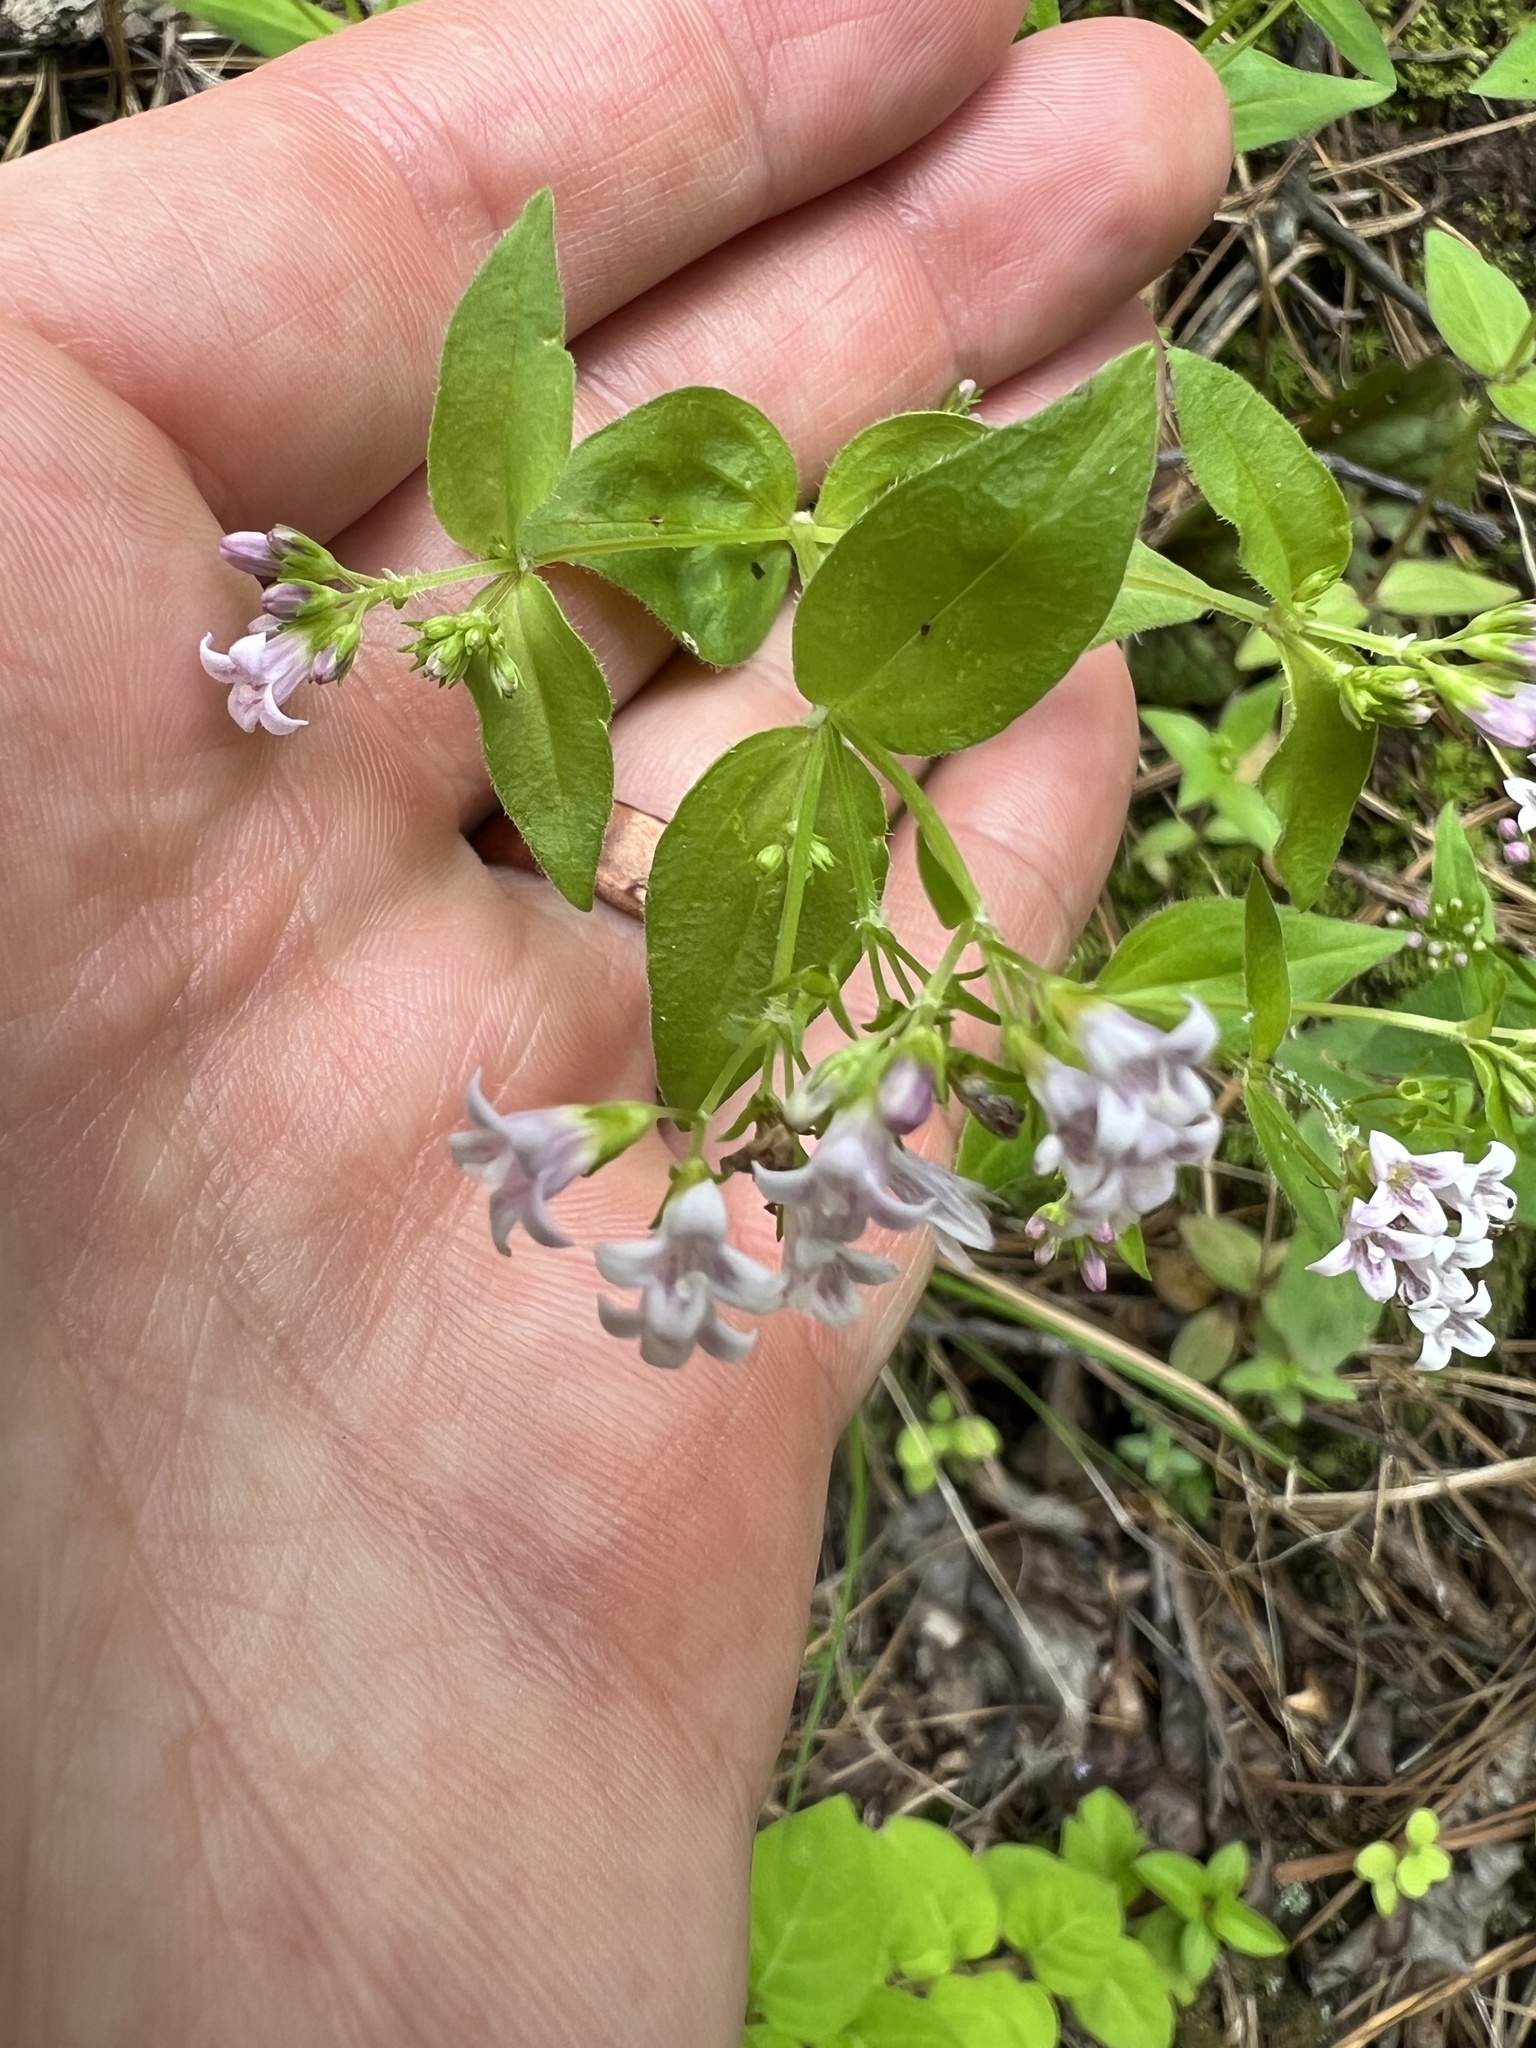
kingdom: Plantae
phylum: Tracheophyta
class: Magnoliopsida
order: Gentianales
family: Rubiaceae
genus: Houstonia
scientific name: Houstonia purpurea
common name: Summer bluet
